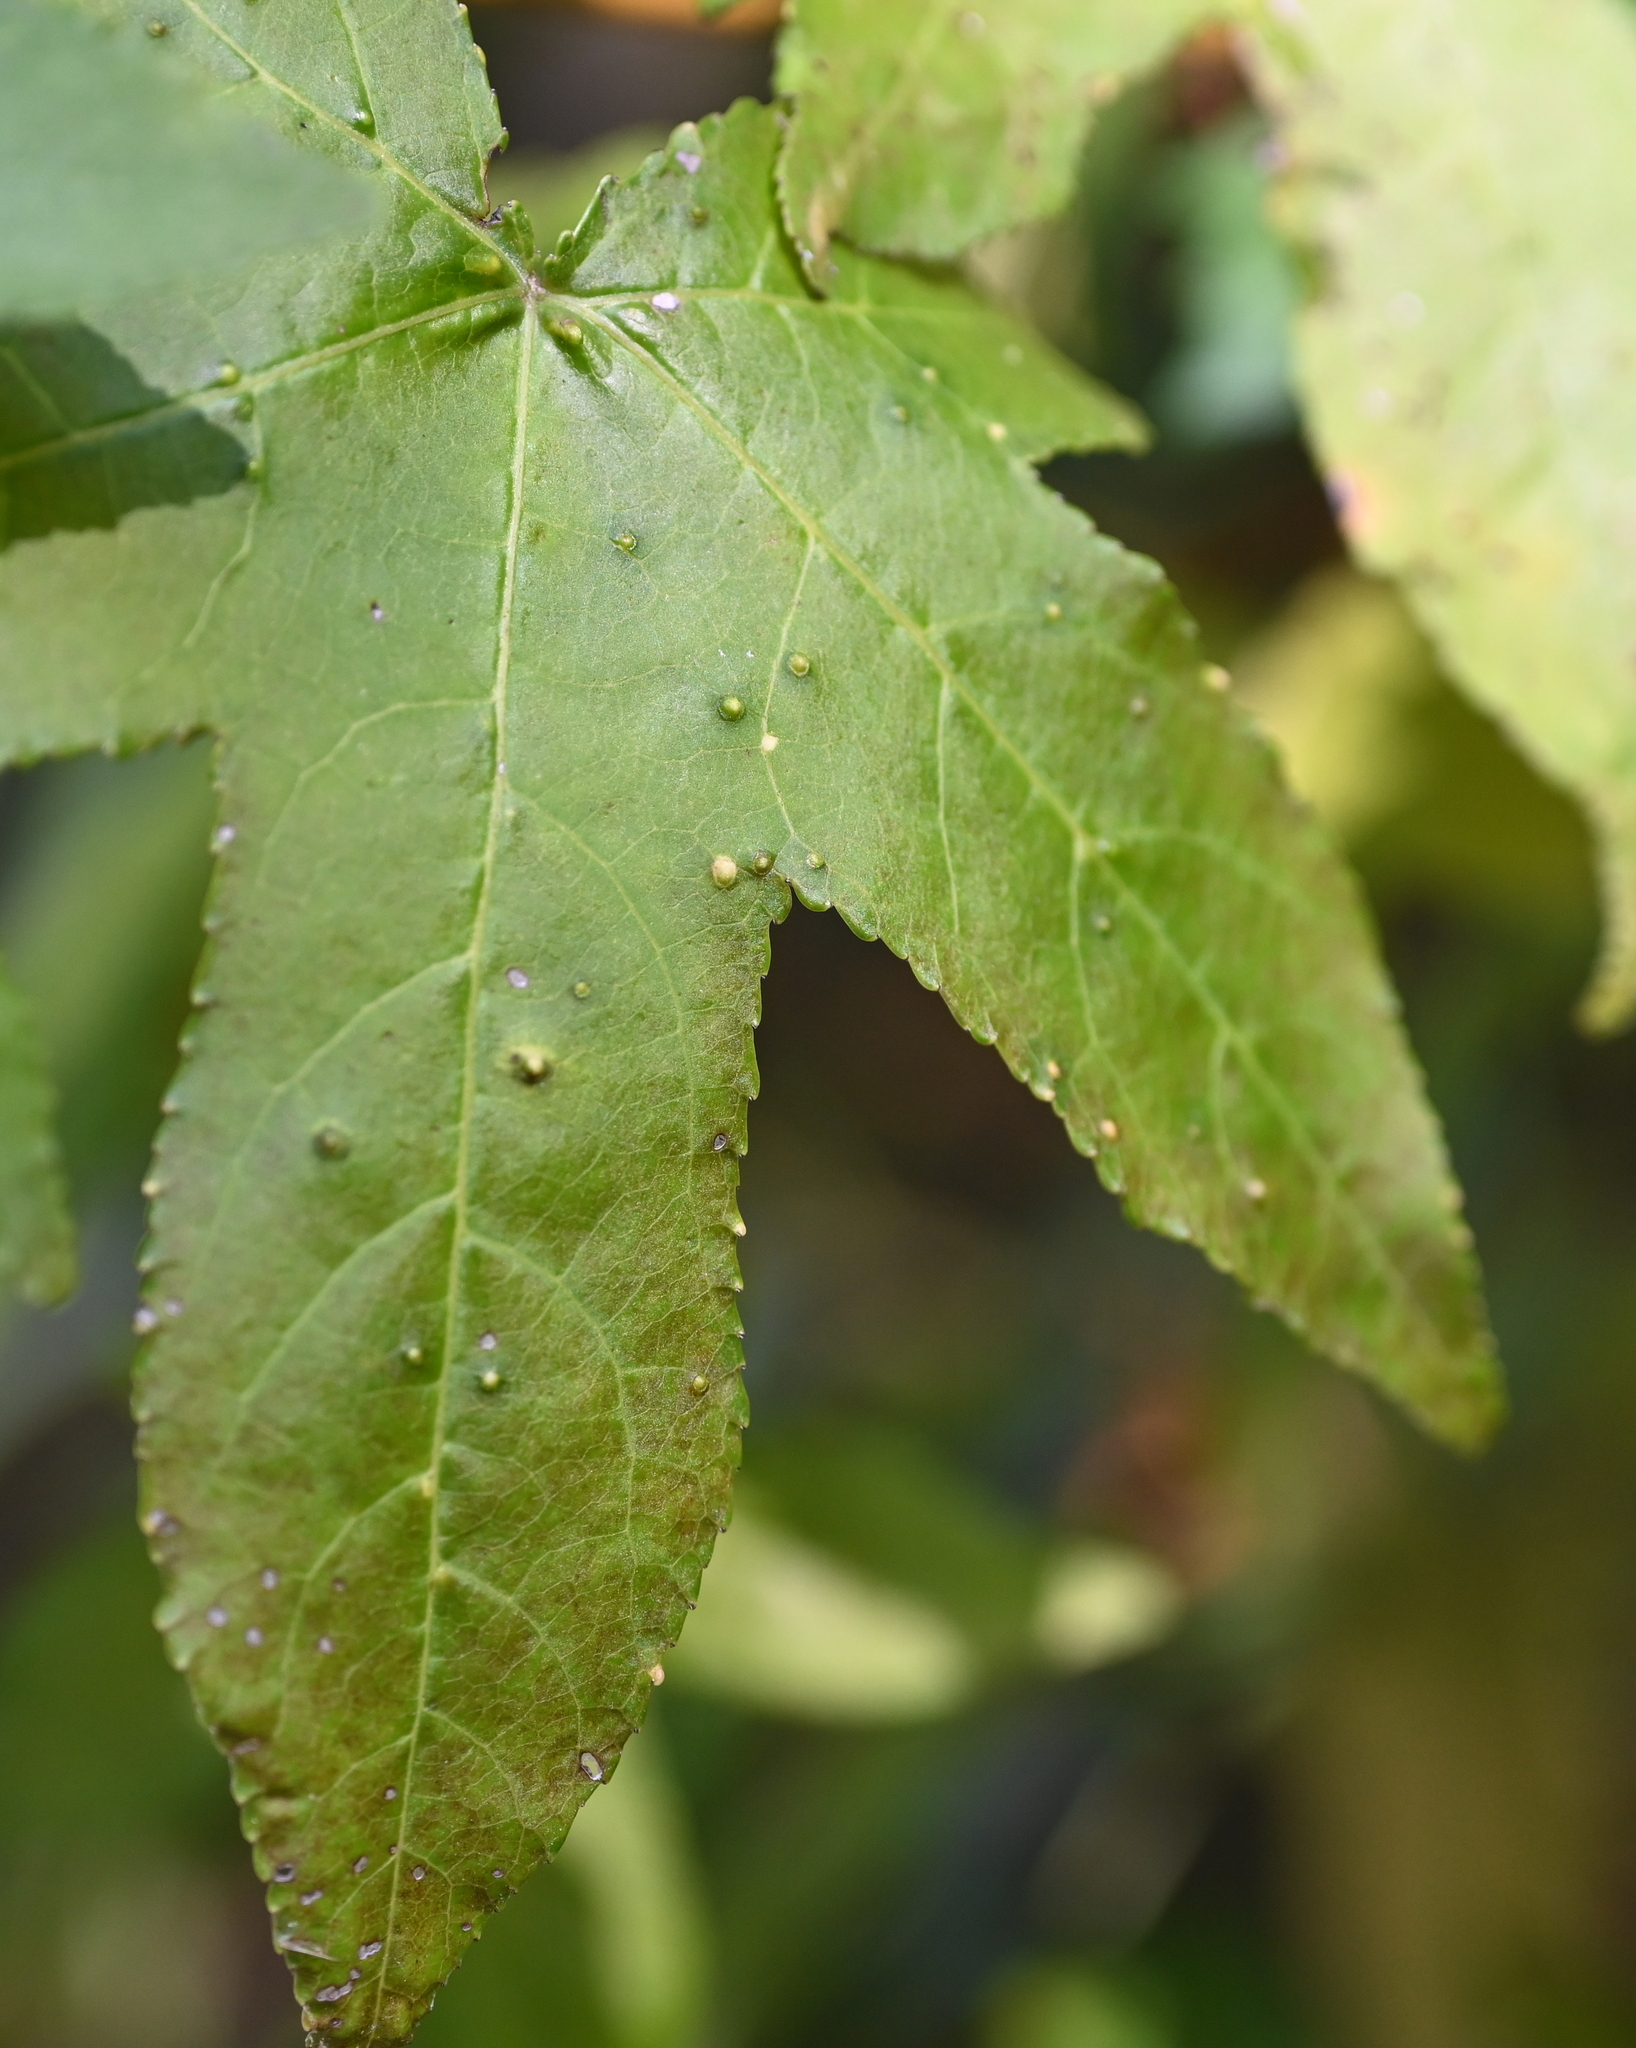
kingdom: Animalia
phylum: Arthropoda
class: Insecta
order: Hemiptera
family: Diaspididae
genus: Diaspidiotus
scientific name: Diaspidiotus liquidambaris
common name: Sweet gum scale
